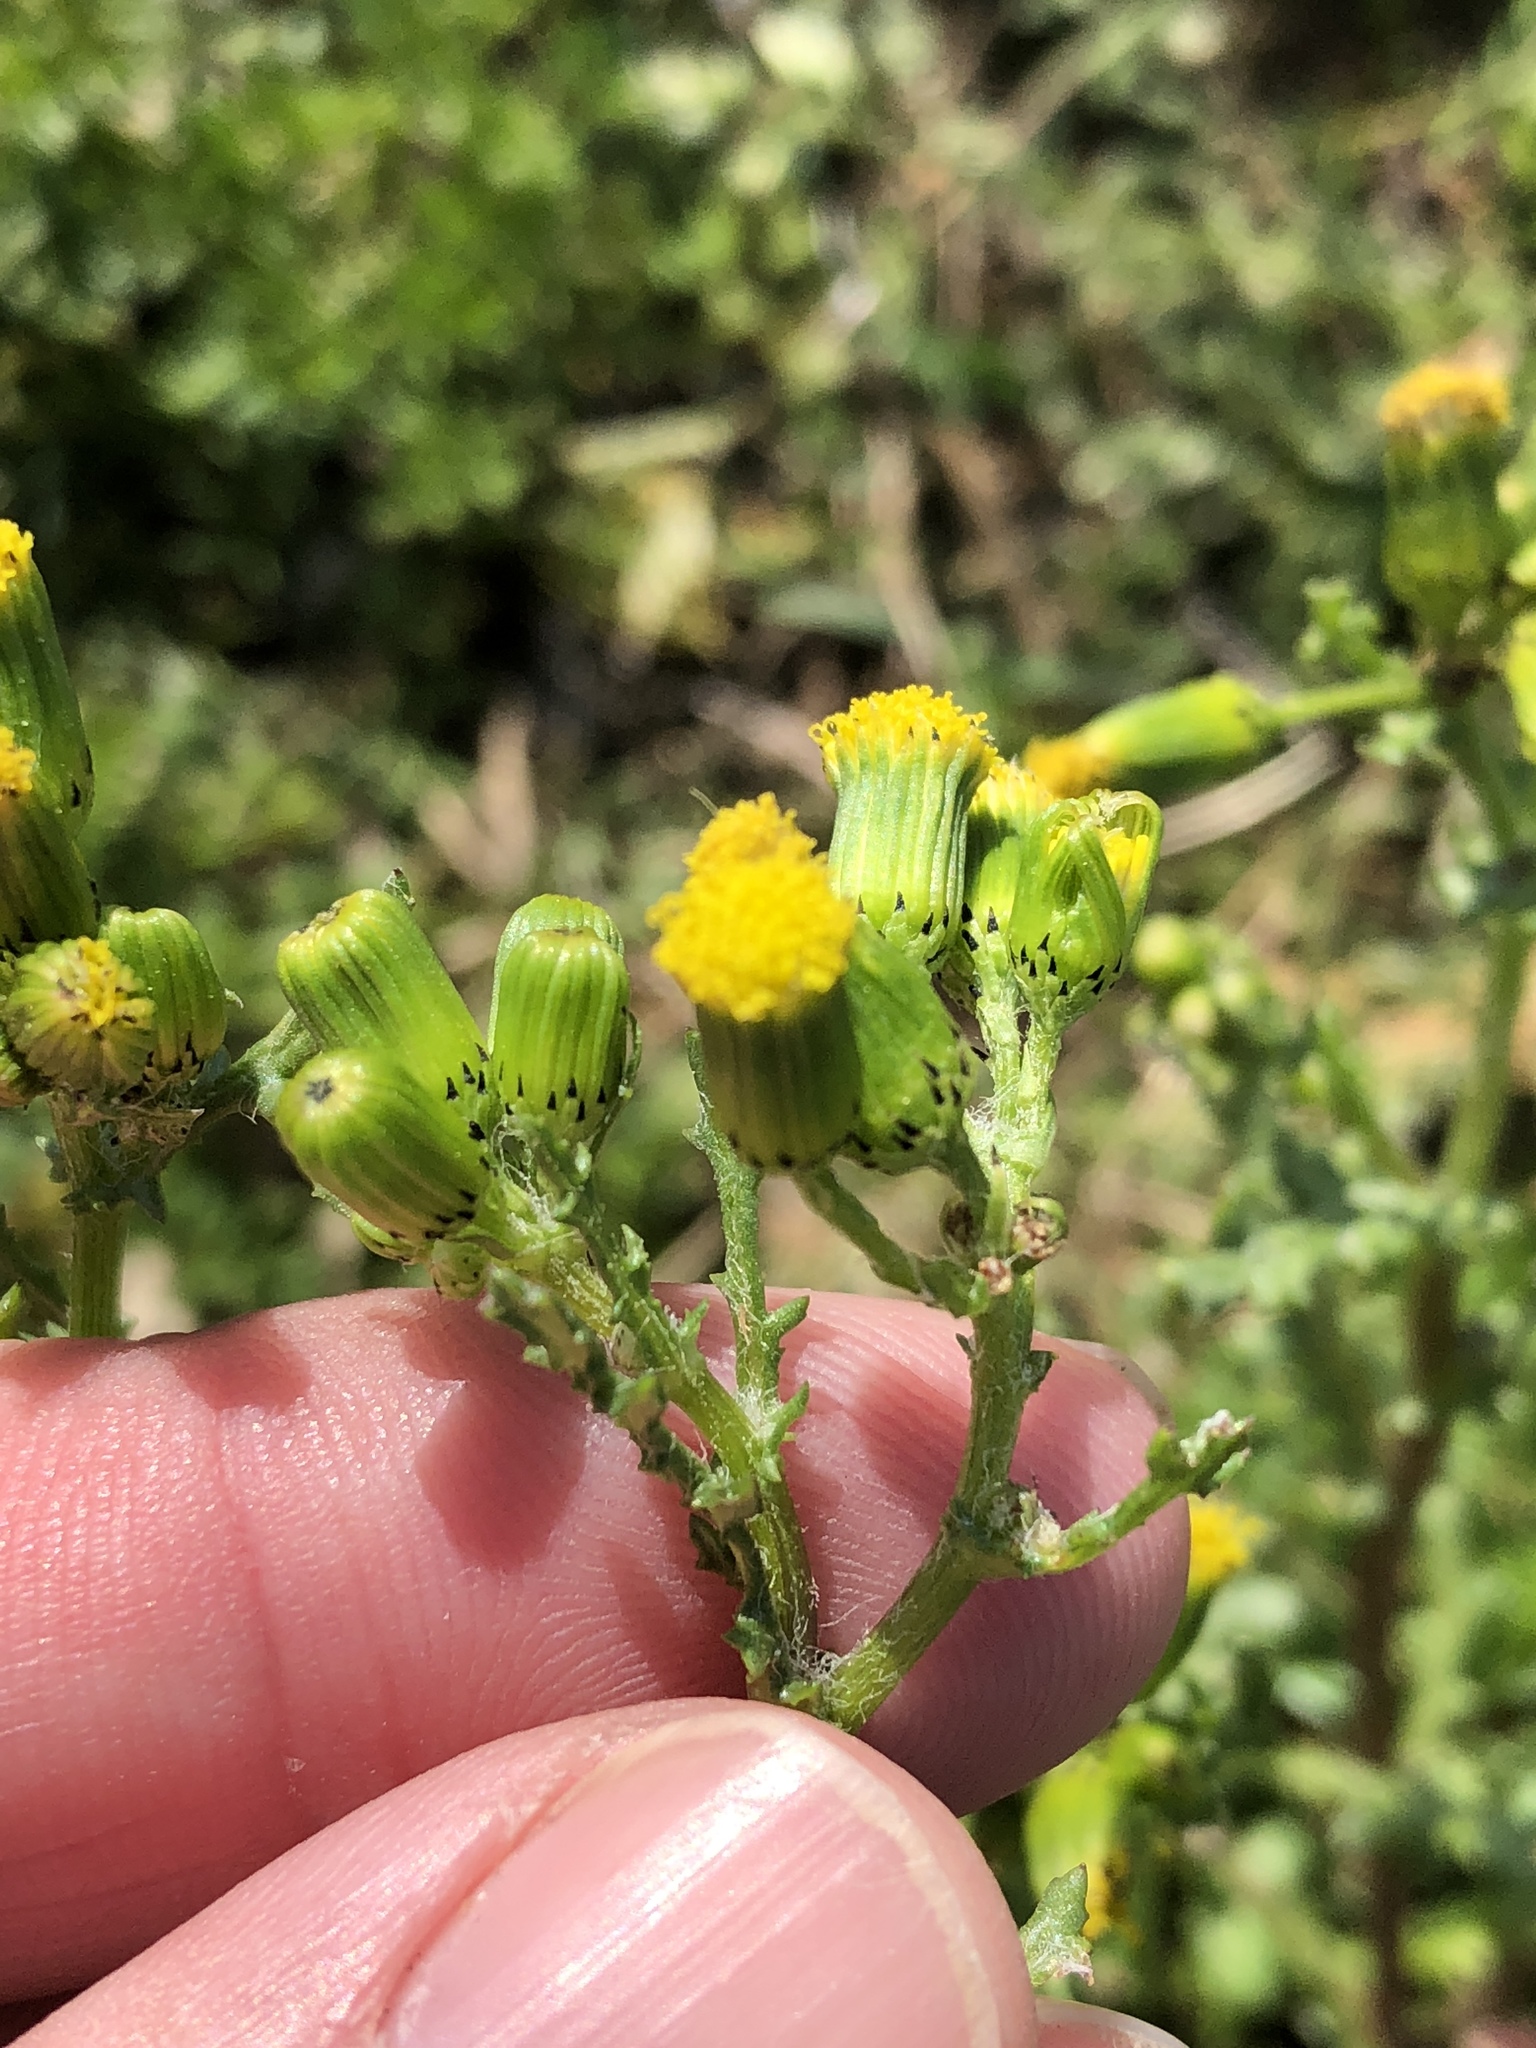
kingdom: Plantae
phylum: Tracheophyta
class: Magnoliopsida
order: Asterales
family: Asteraceae
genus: Senecio
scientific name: Senecio vulgaris
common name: Old-man-in-the-spring
